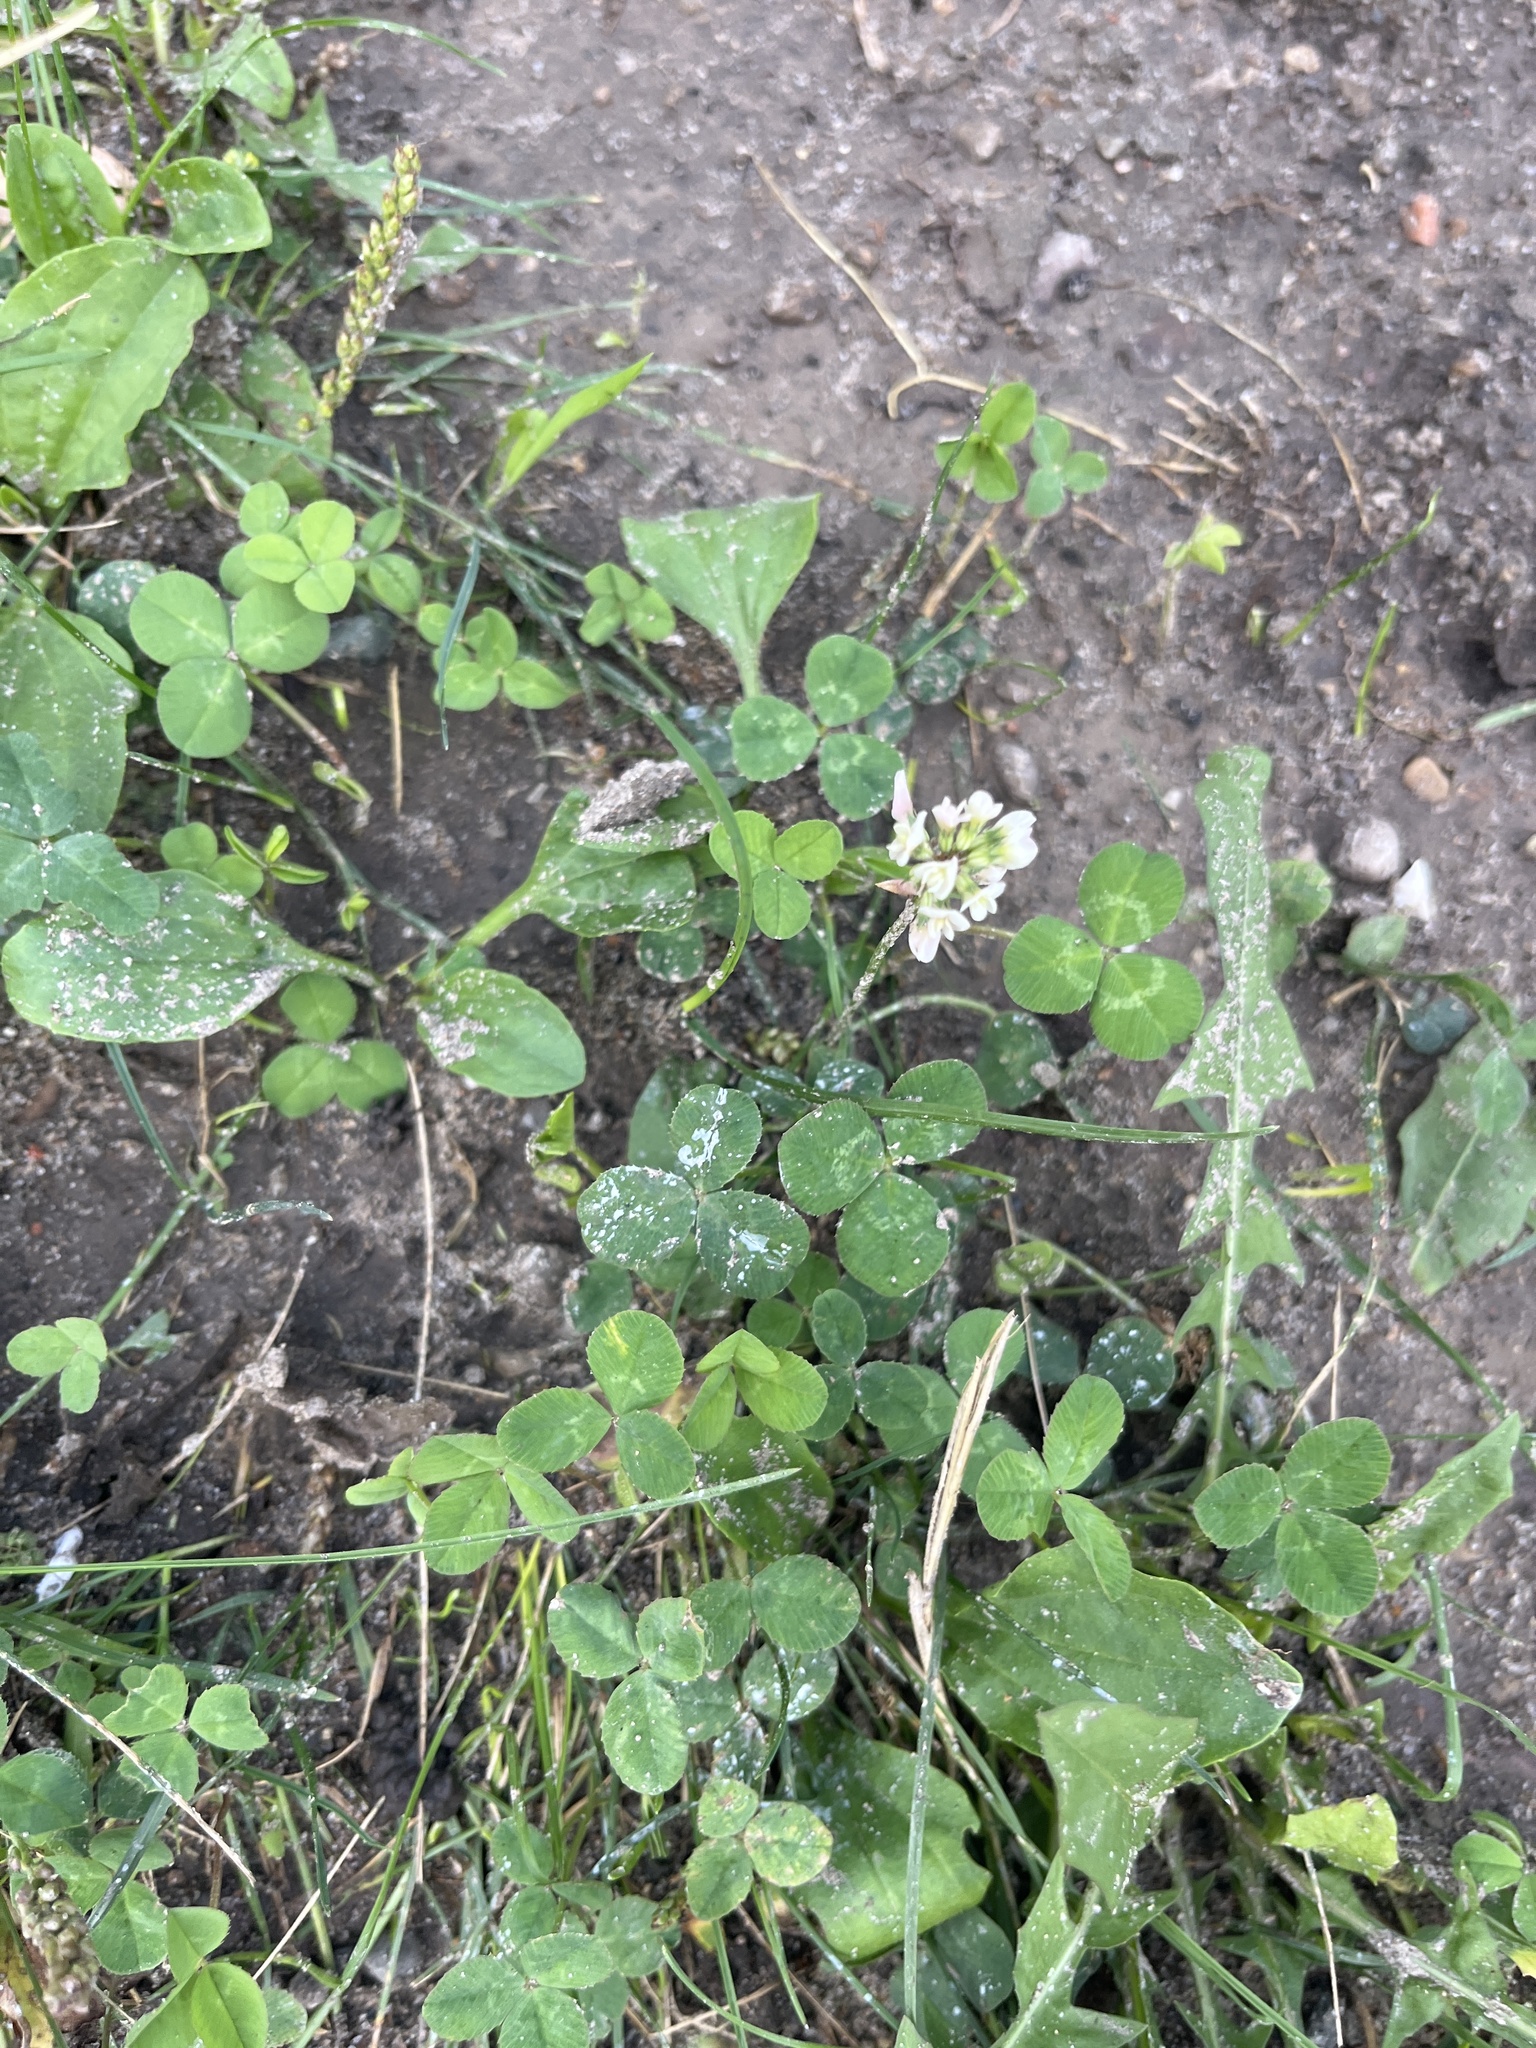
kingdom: Plantae
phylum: Tracheophyta
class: Magnoliopsida
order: Fabales
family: Fabaceae
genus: Trifolium
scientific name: Trifolium repens
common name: White clover
